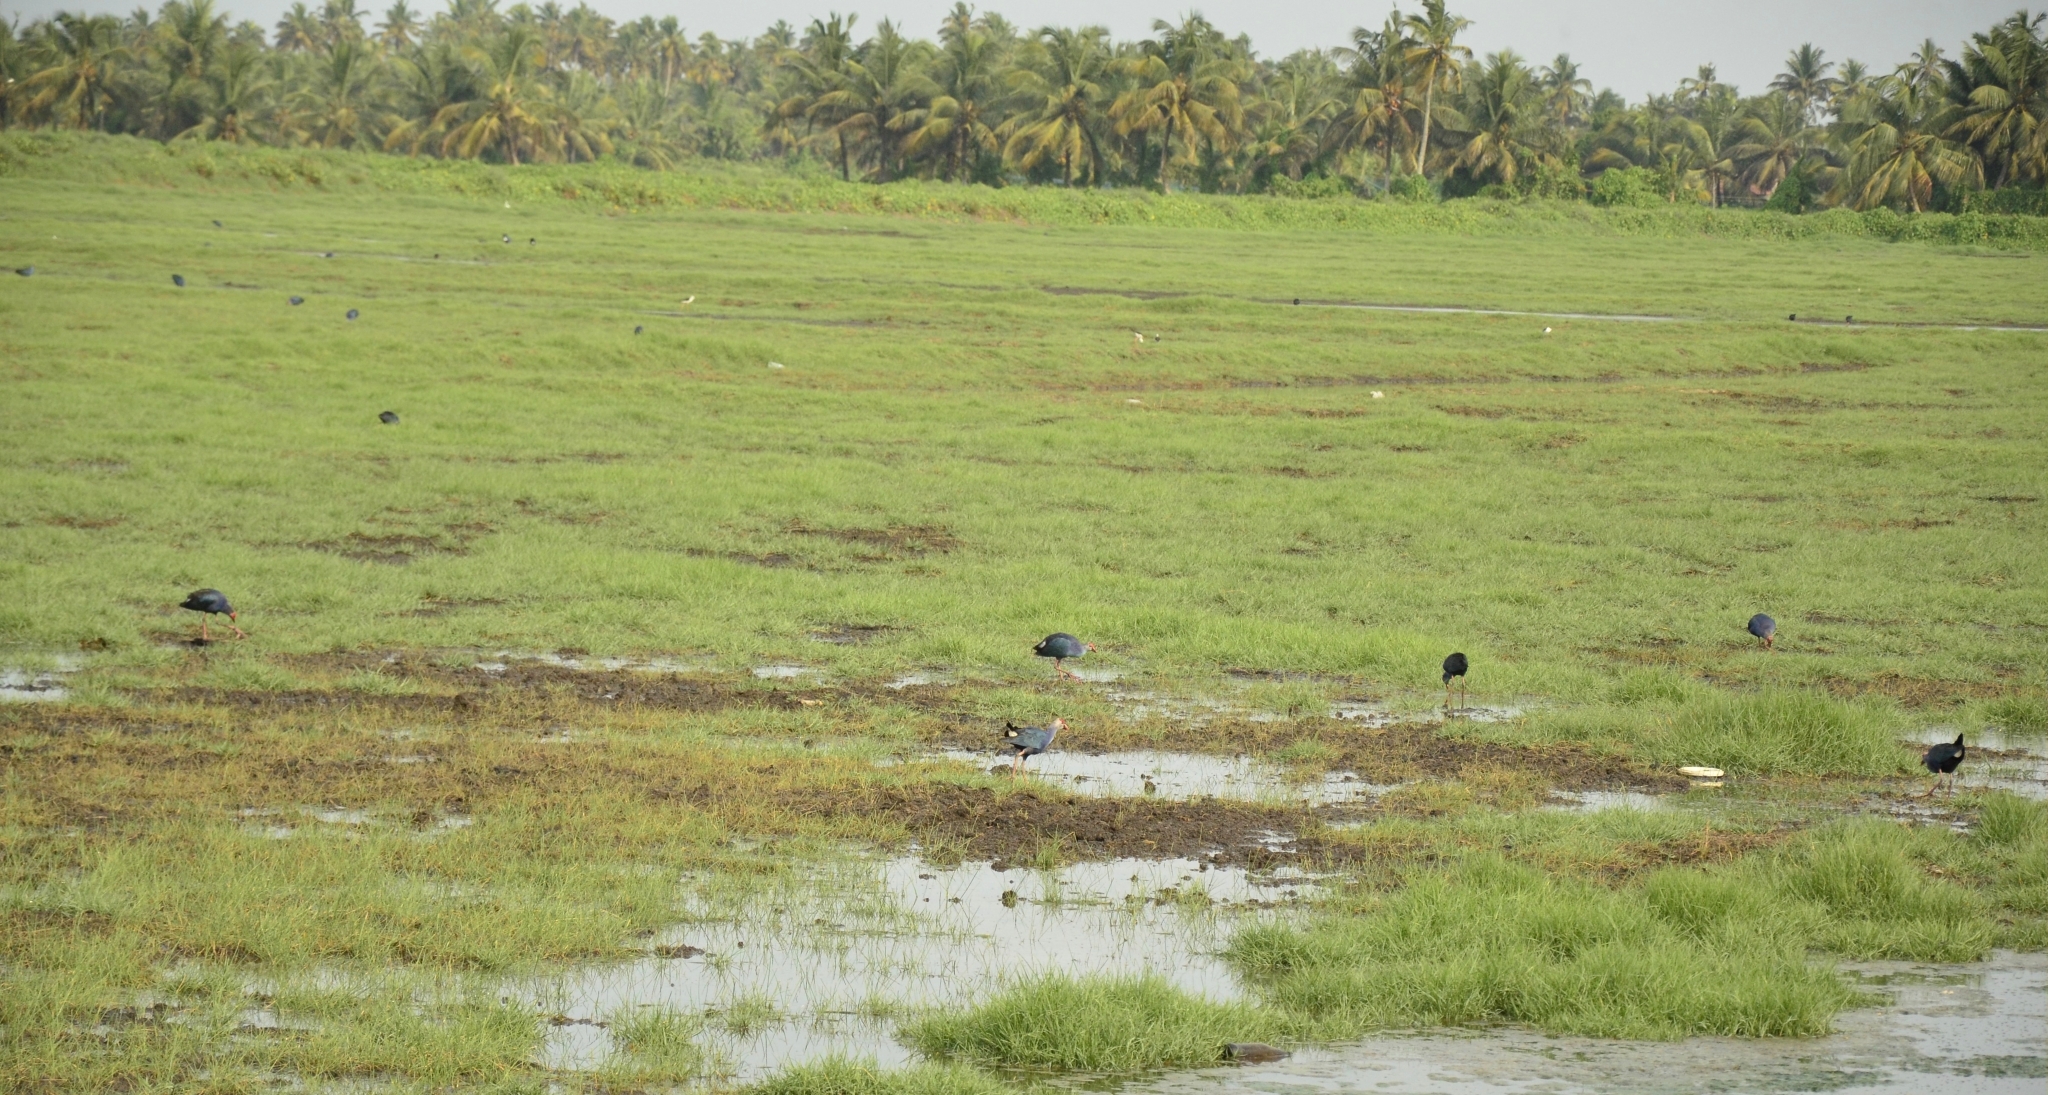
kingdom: Animalia
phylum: Chordata
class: Aves
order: Gruiformes
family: Rallidae
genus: Porphyrio
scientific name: Porphyrio porphyrio
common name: Purple swamphen
